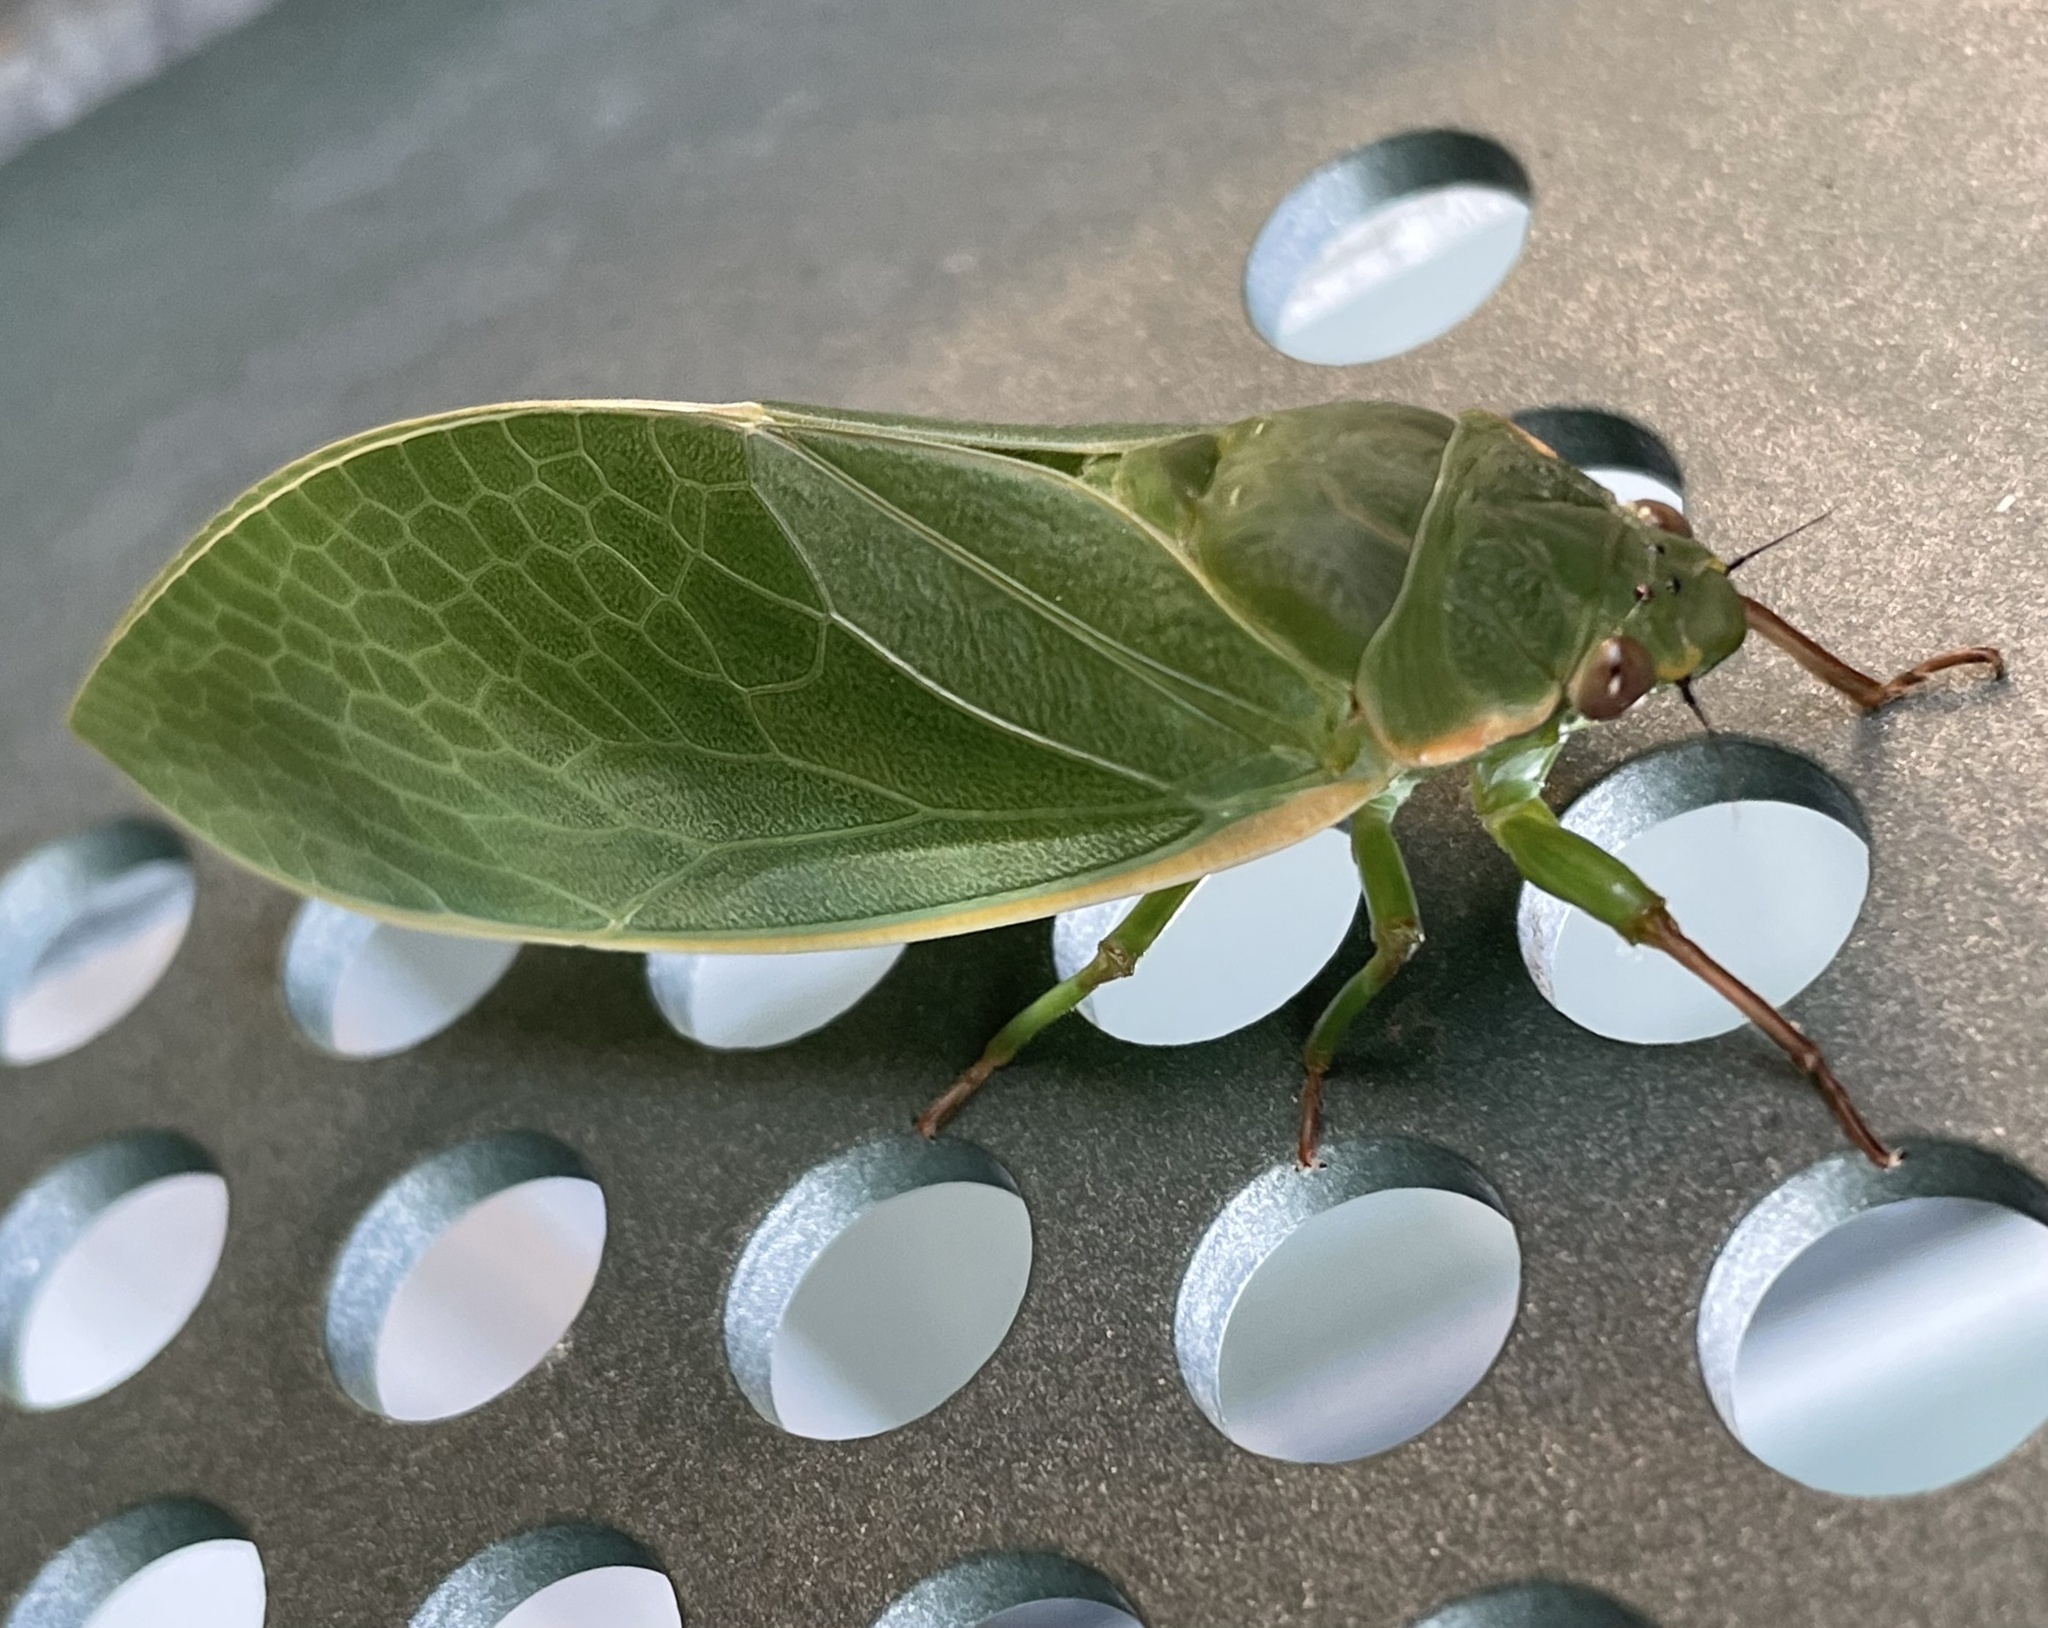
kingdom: Animalia
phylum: Arthropoda
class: Insecta
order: Hemiptera
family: Cicadidae
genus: Cystosoma
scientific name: Cystosoma saundersii
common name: Bladder cicada
